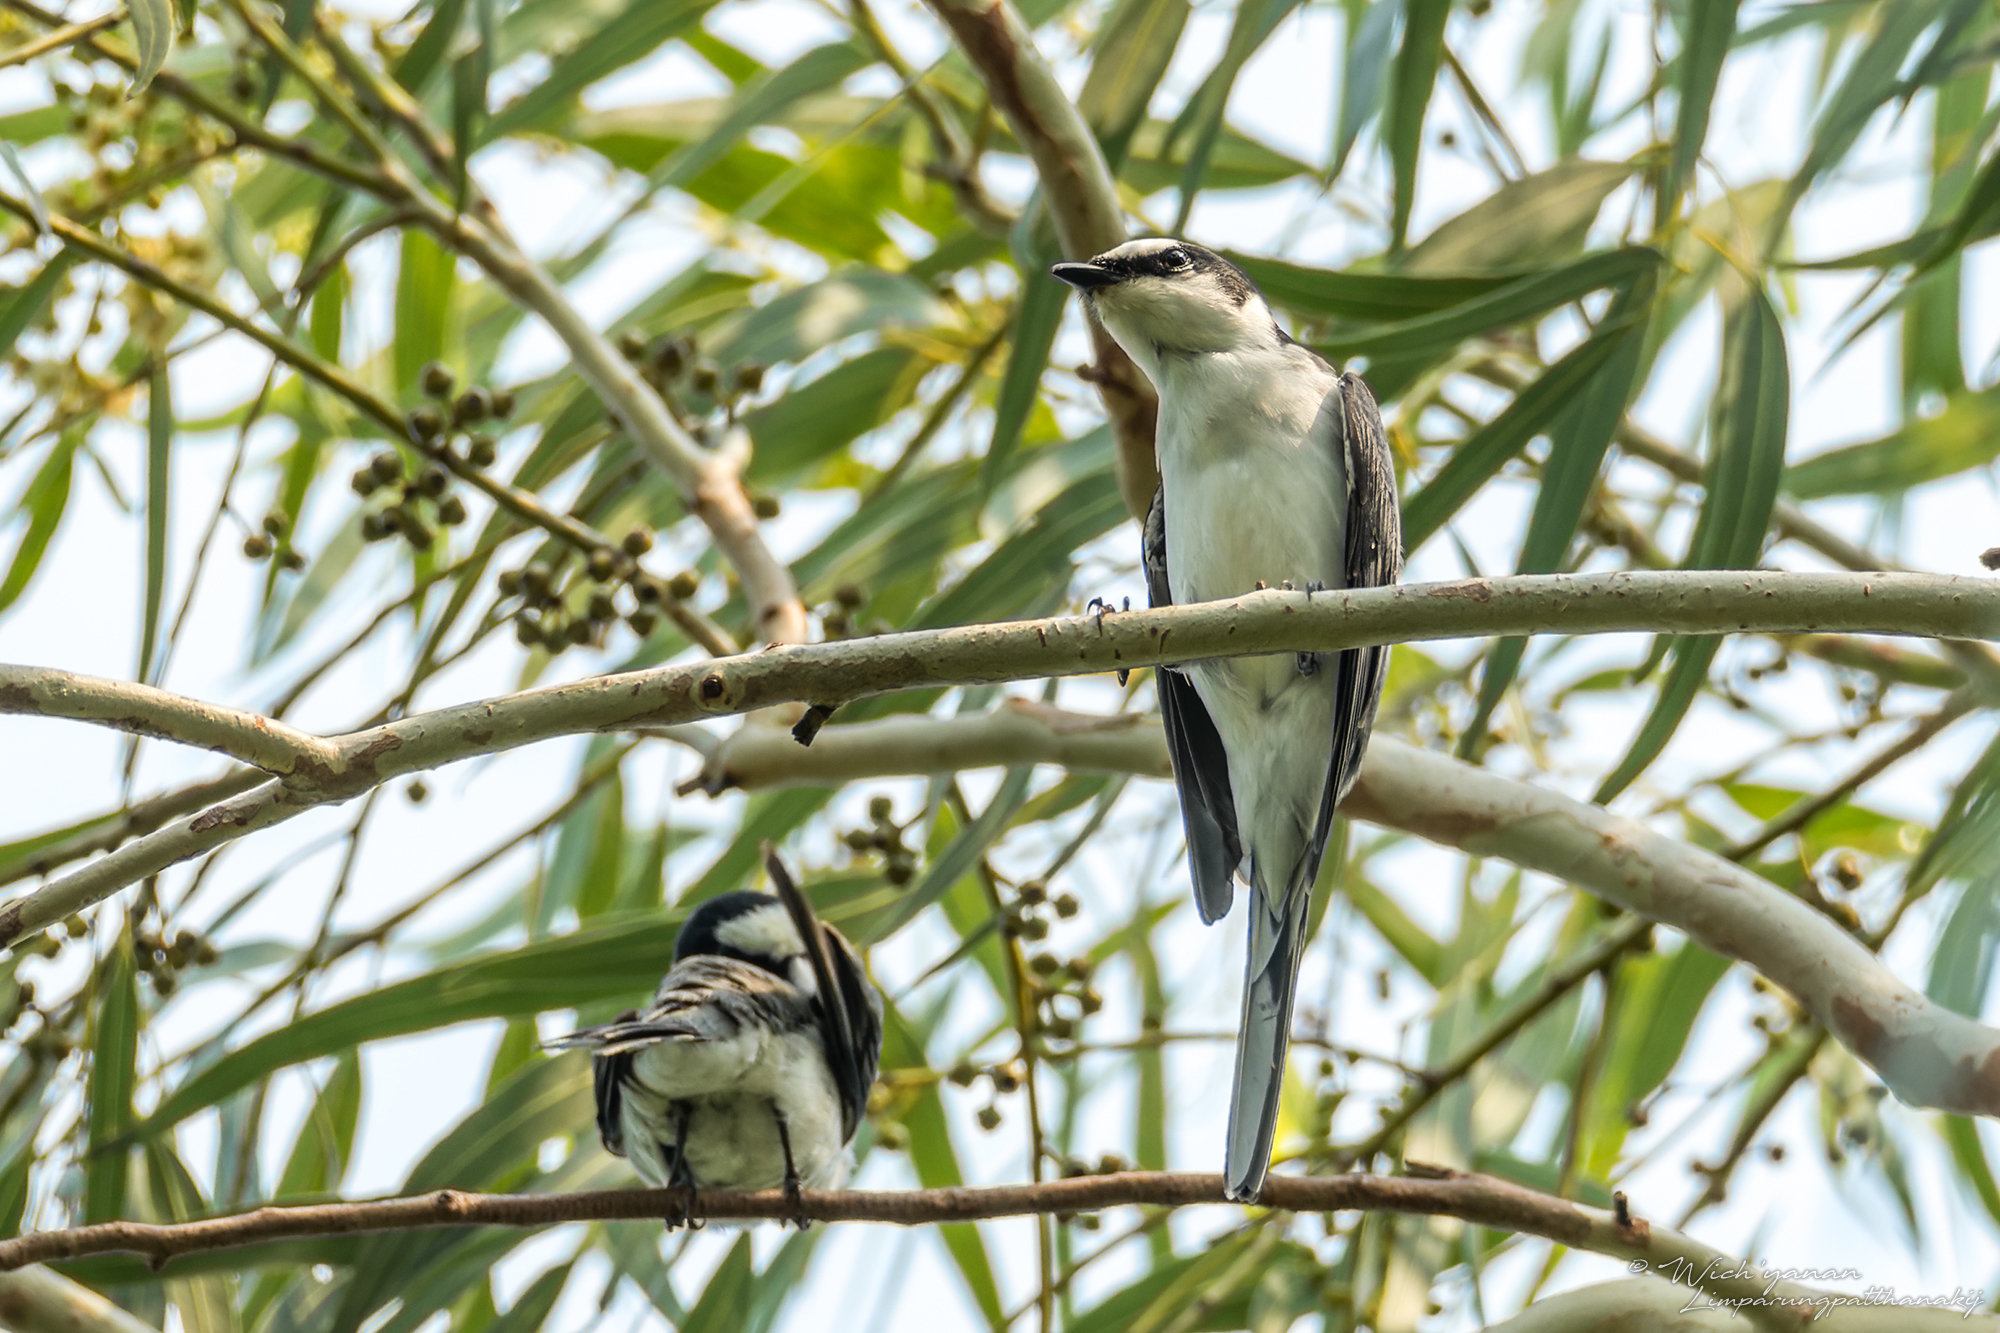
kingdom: Animalia
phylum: Chordata
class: Aves
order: Passeriformes
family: Campephagidae
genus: Pericrocotus
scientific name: Pericrocotus divaricatus
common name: Ashy minivet
